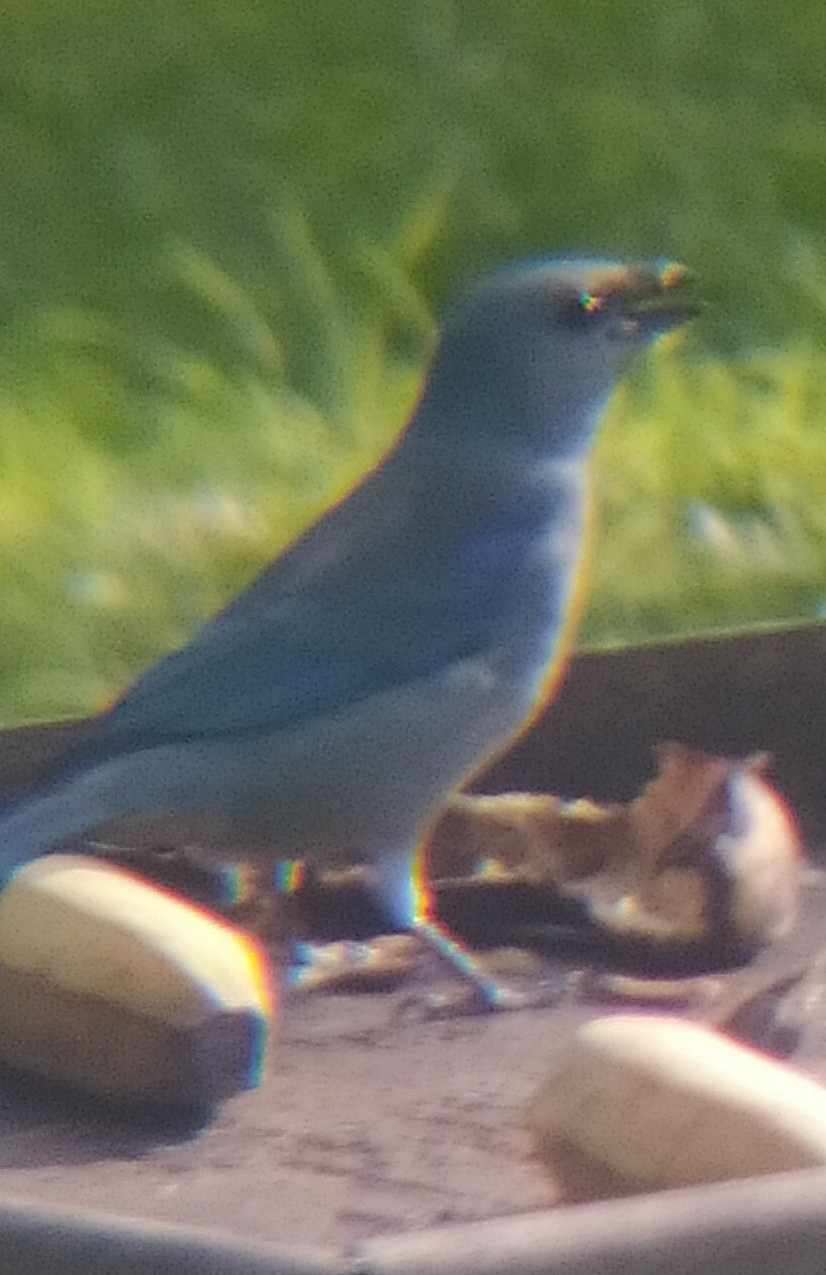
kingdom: Animalia
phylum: Chordata
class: Aves
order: Passeriformes
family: Thraupidae
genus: Thraupis
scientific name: Thraupis cyanoptera
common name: Azure-shouldered tanager
